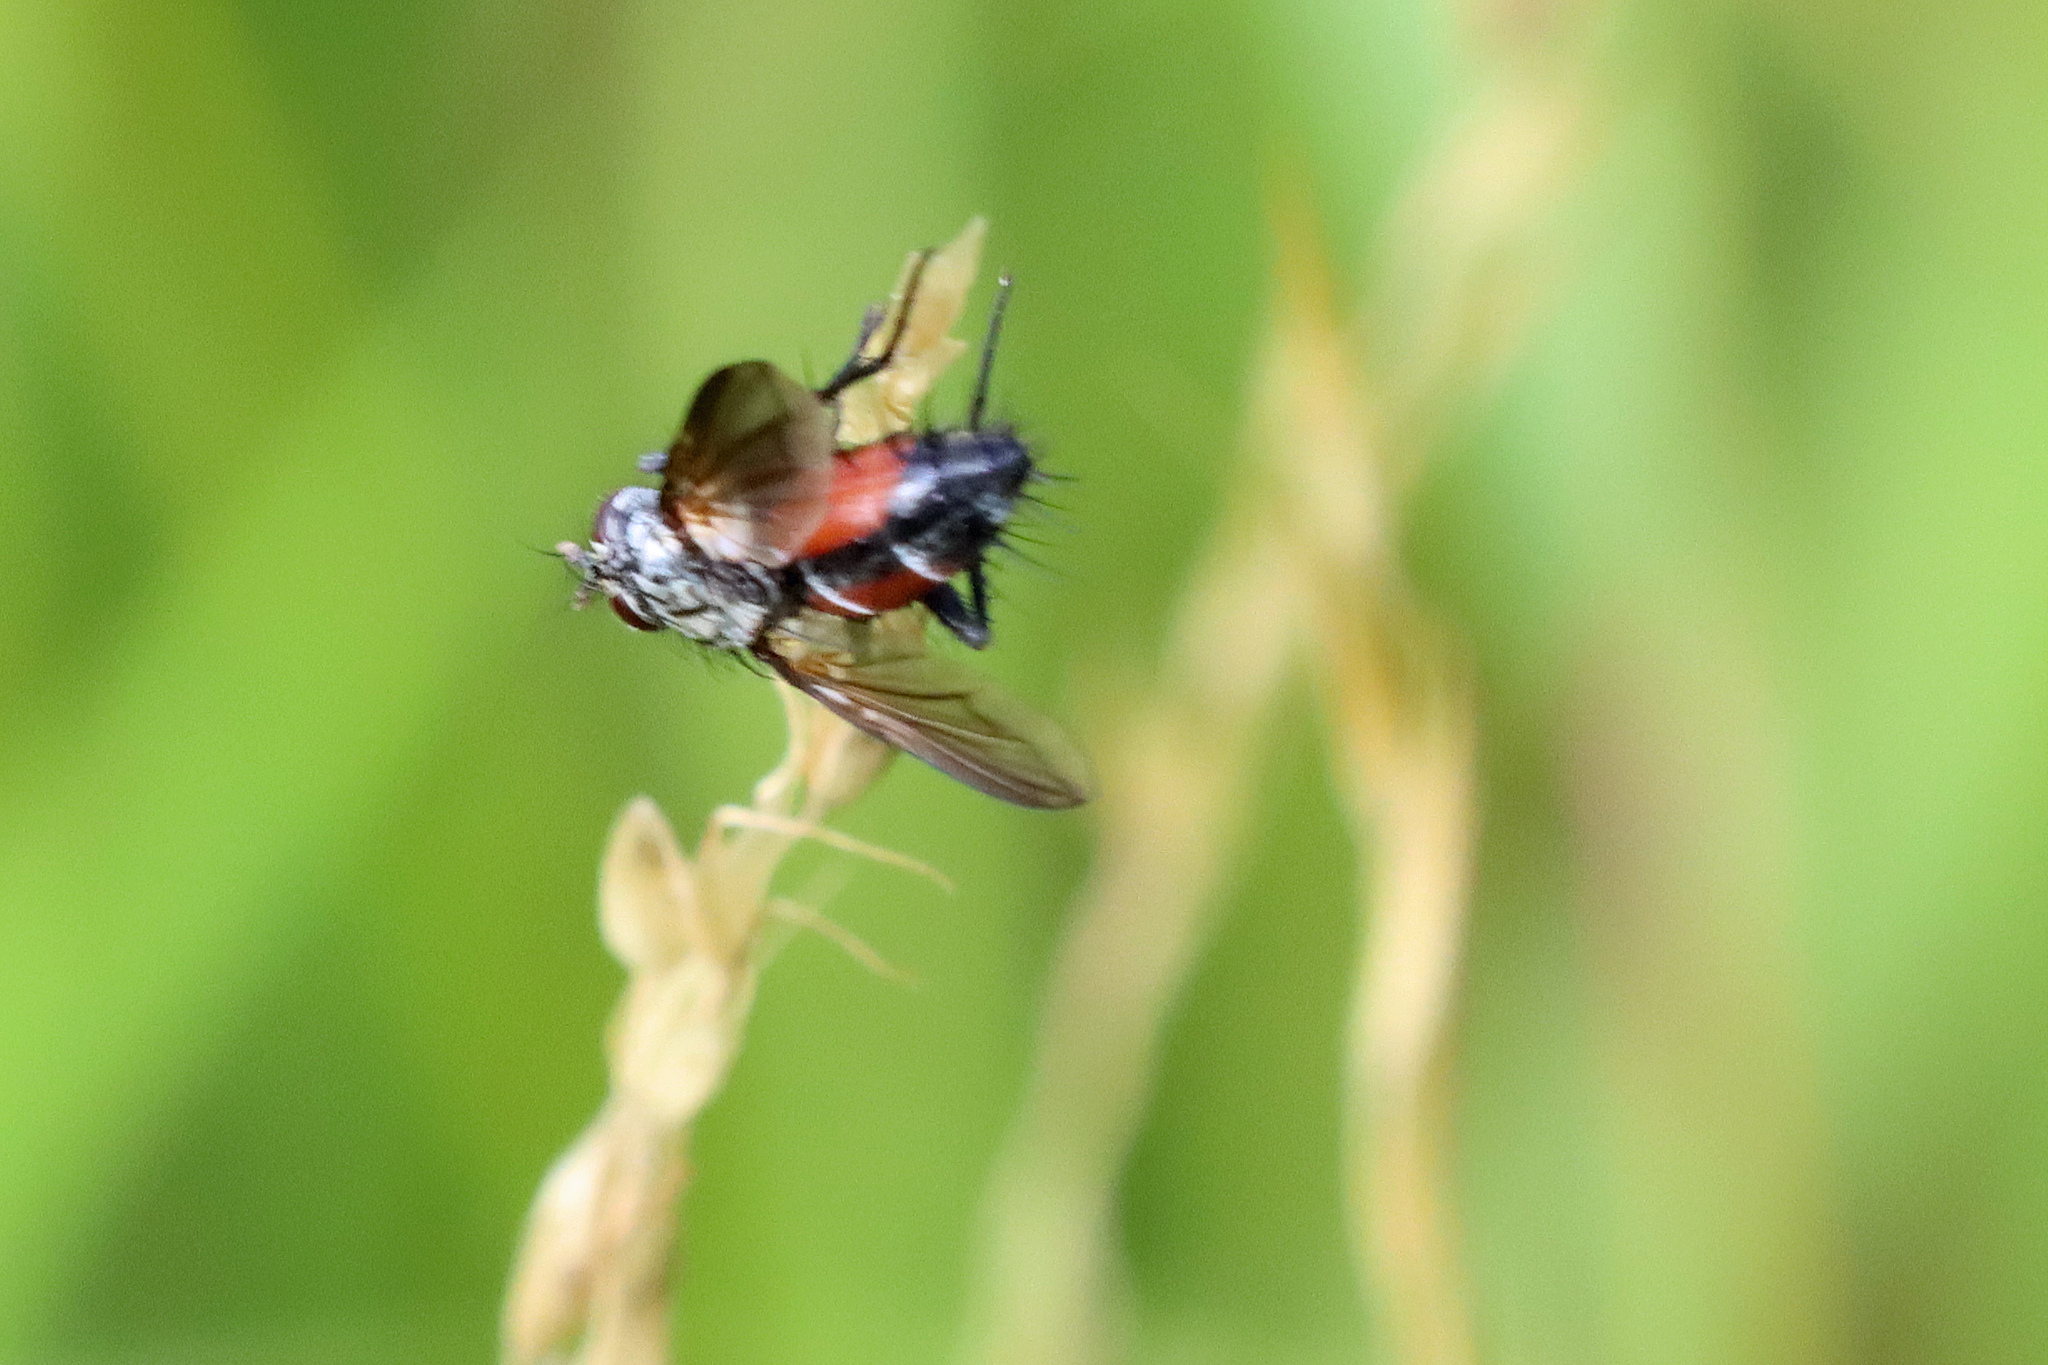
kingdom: Animalia
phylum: Arthropoda
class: Insecta
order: Diptera
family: Tachinidae
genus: Eriothrix
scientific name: Eriothrix rufomaculatus
